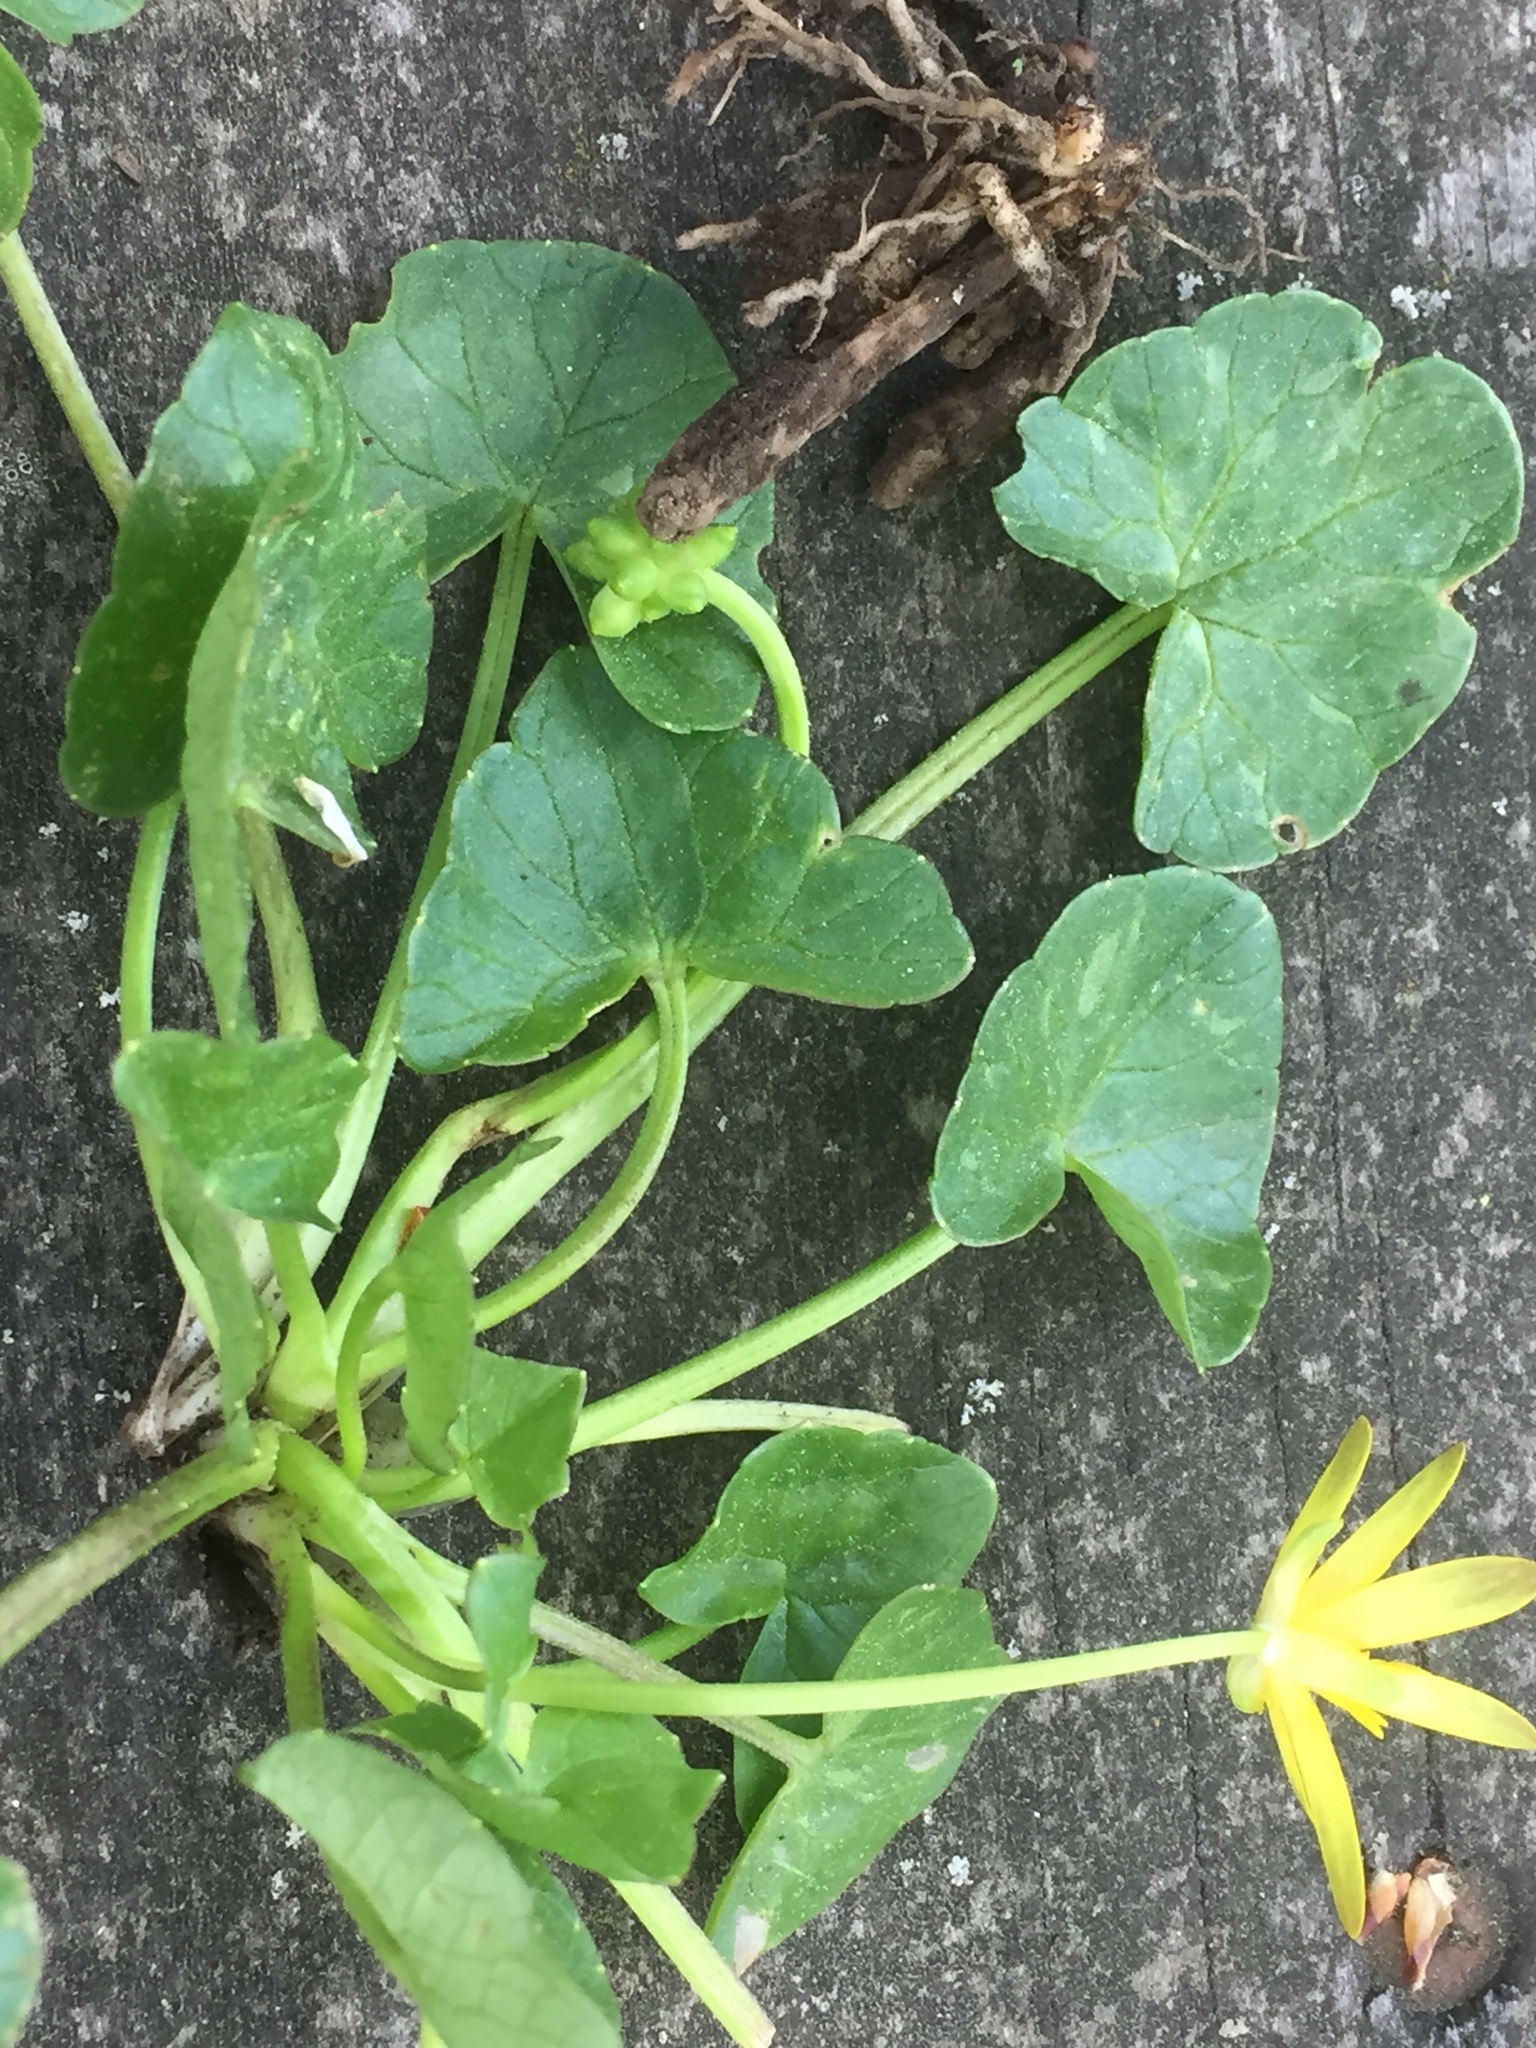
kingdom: Plantae
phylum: Tracheophyta
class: Magnoliopsida
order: Ranunculales
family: Ranunculaceae
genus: Ficaria
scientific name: Ficaria verna
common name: Lesser celandine
